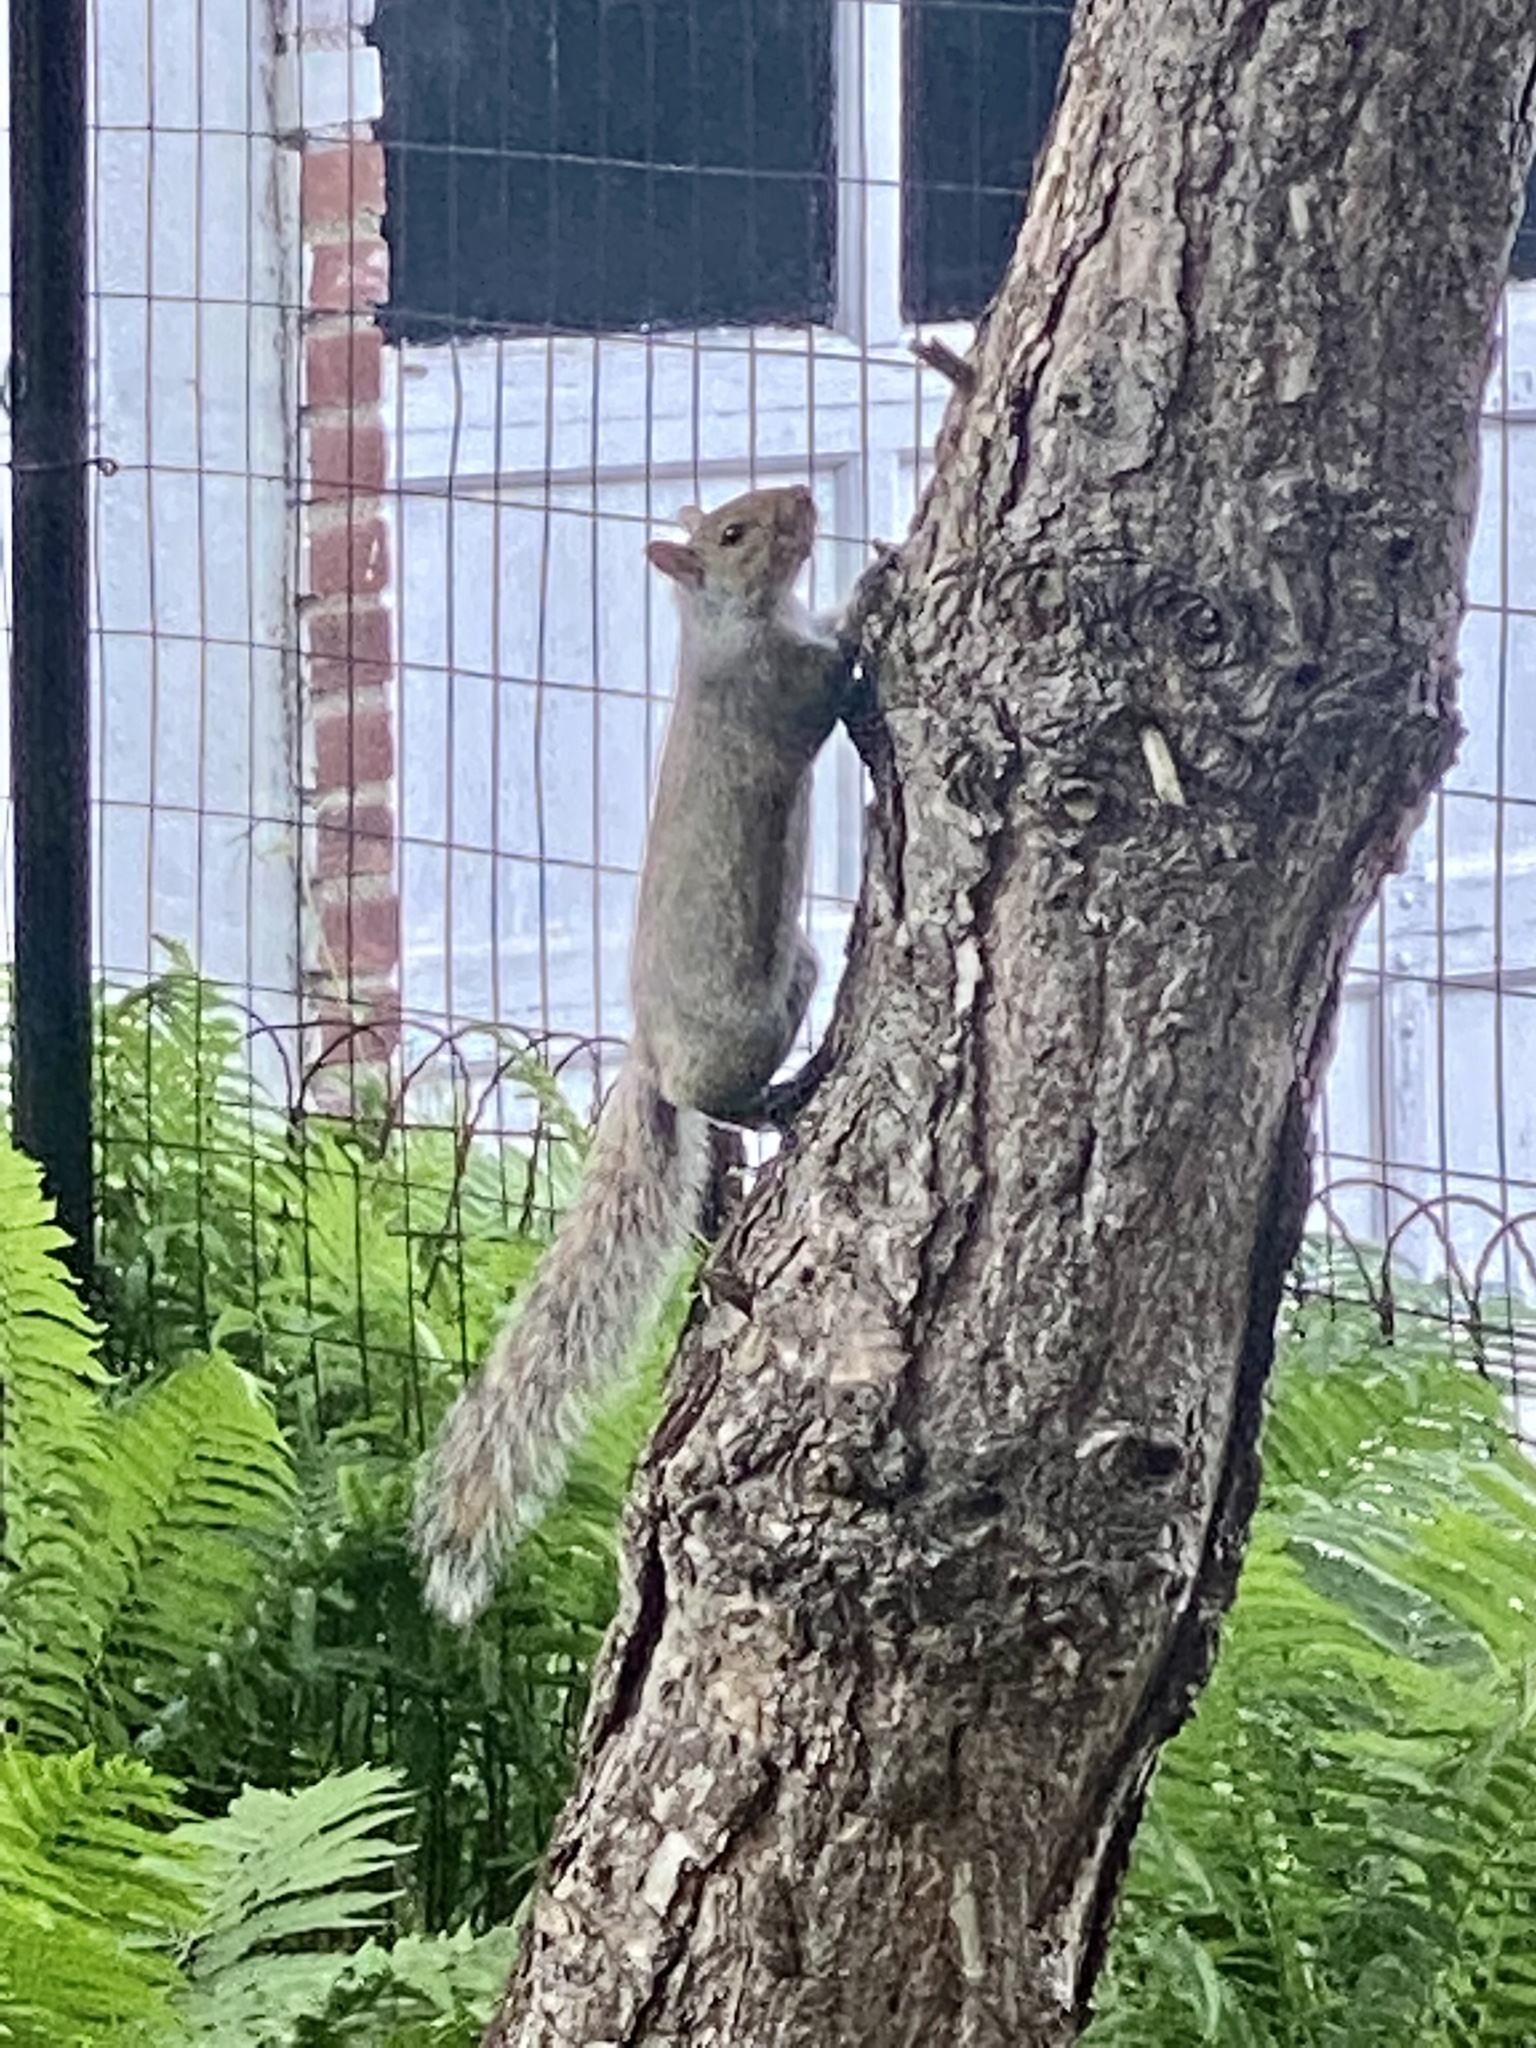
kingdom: Animalia
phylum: Chordata
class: Mammalia
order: Rodentia
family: Sciuridae
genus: Sciurus
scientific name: Sciurus carolinensis
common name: Eastern gray squirrel
